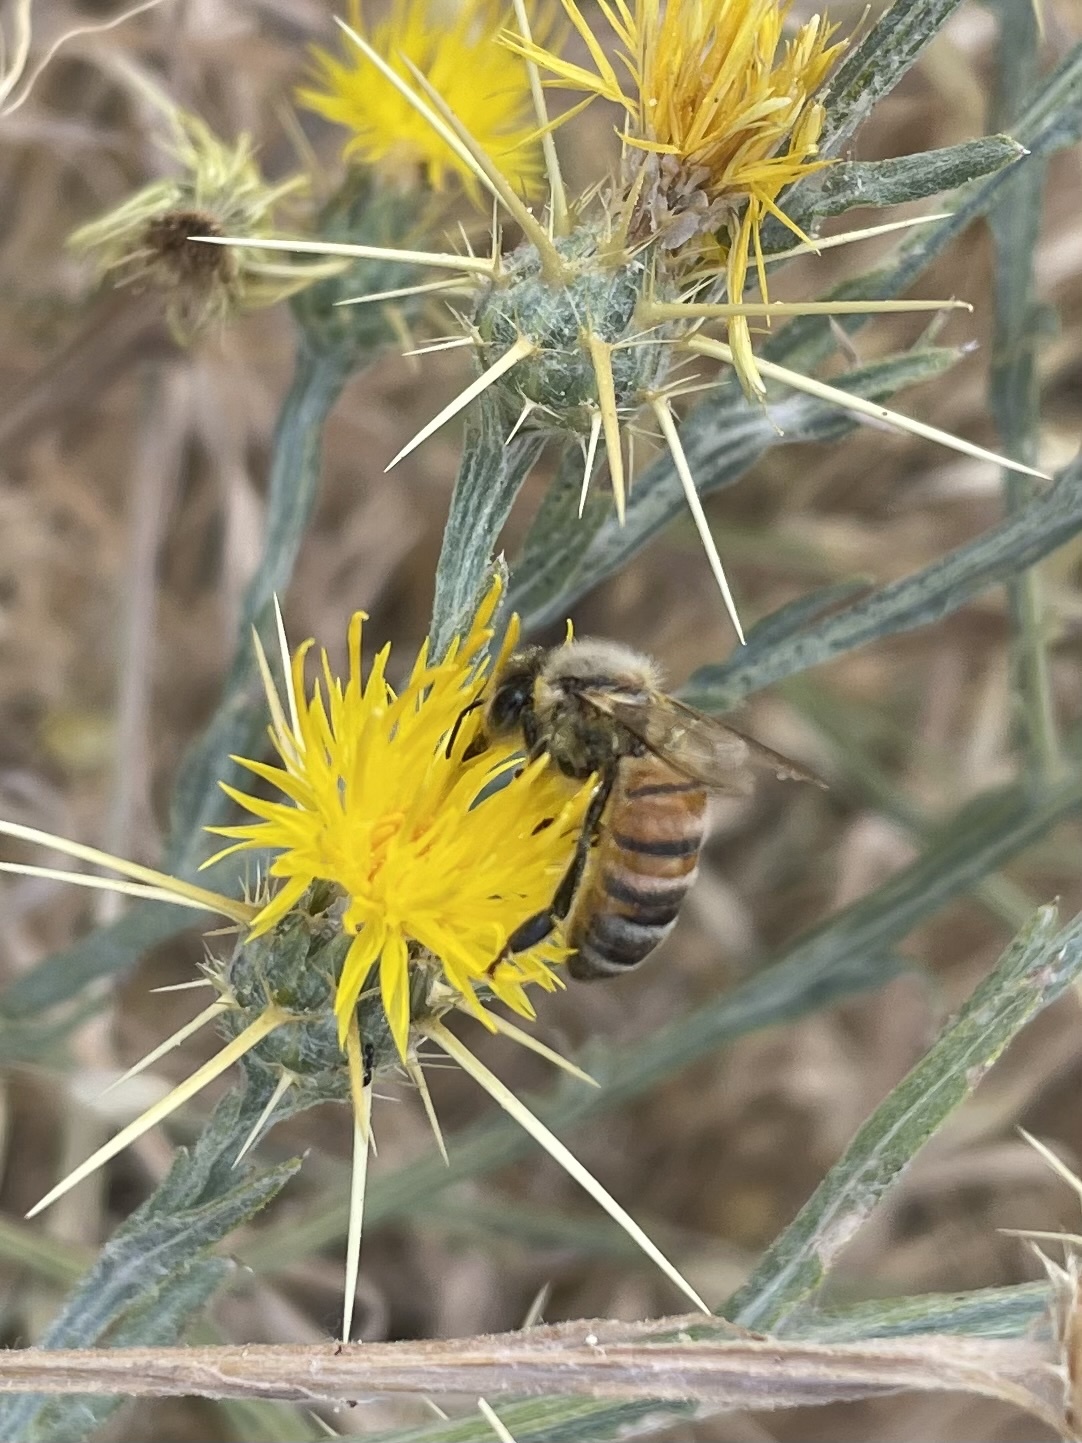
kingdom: Animalia
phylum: Arthropoda
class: Insecta
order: Hymenoptera
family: Apidae
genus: Apis
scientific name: Apis mellifera
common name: Honey bee
